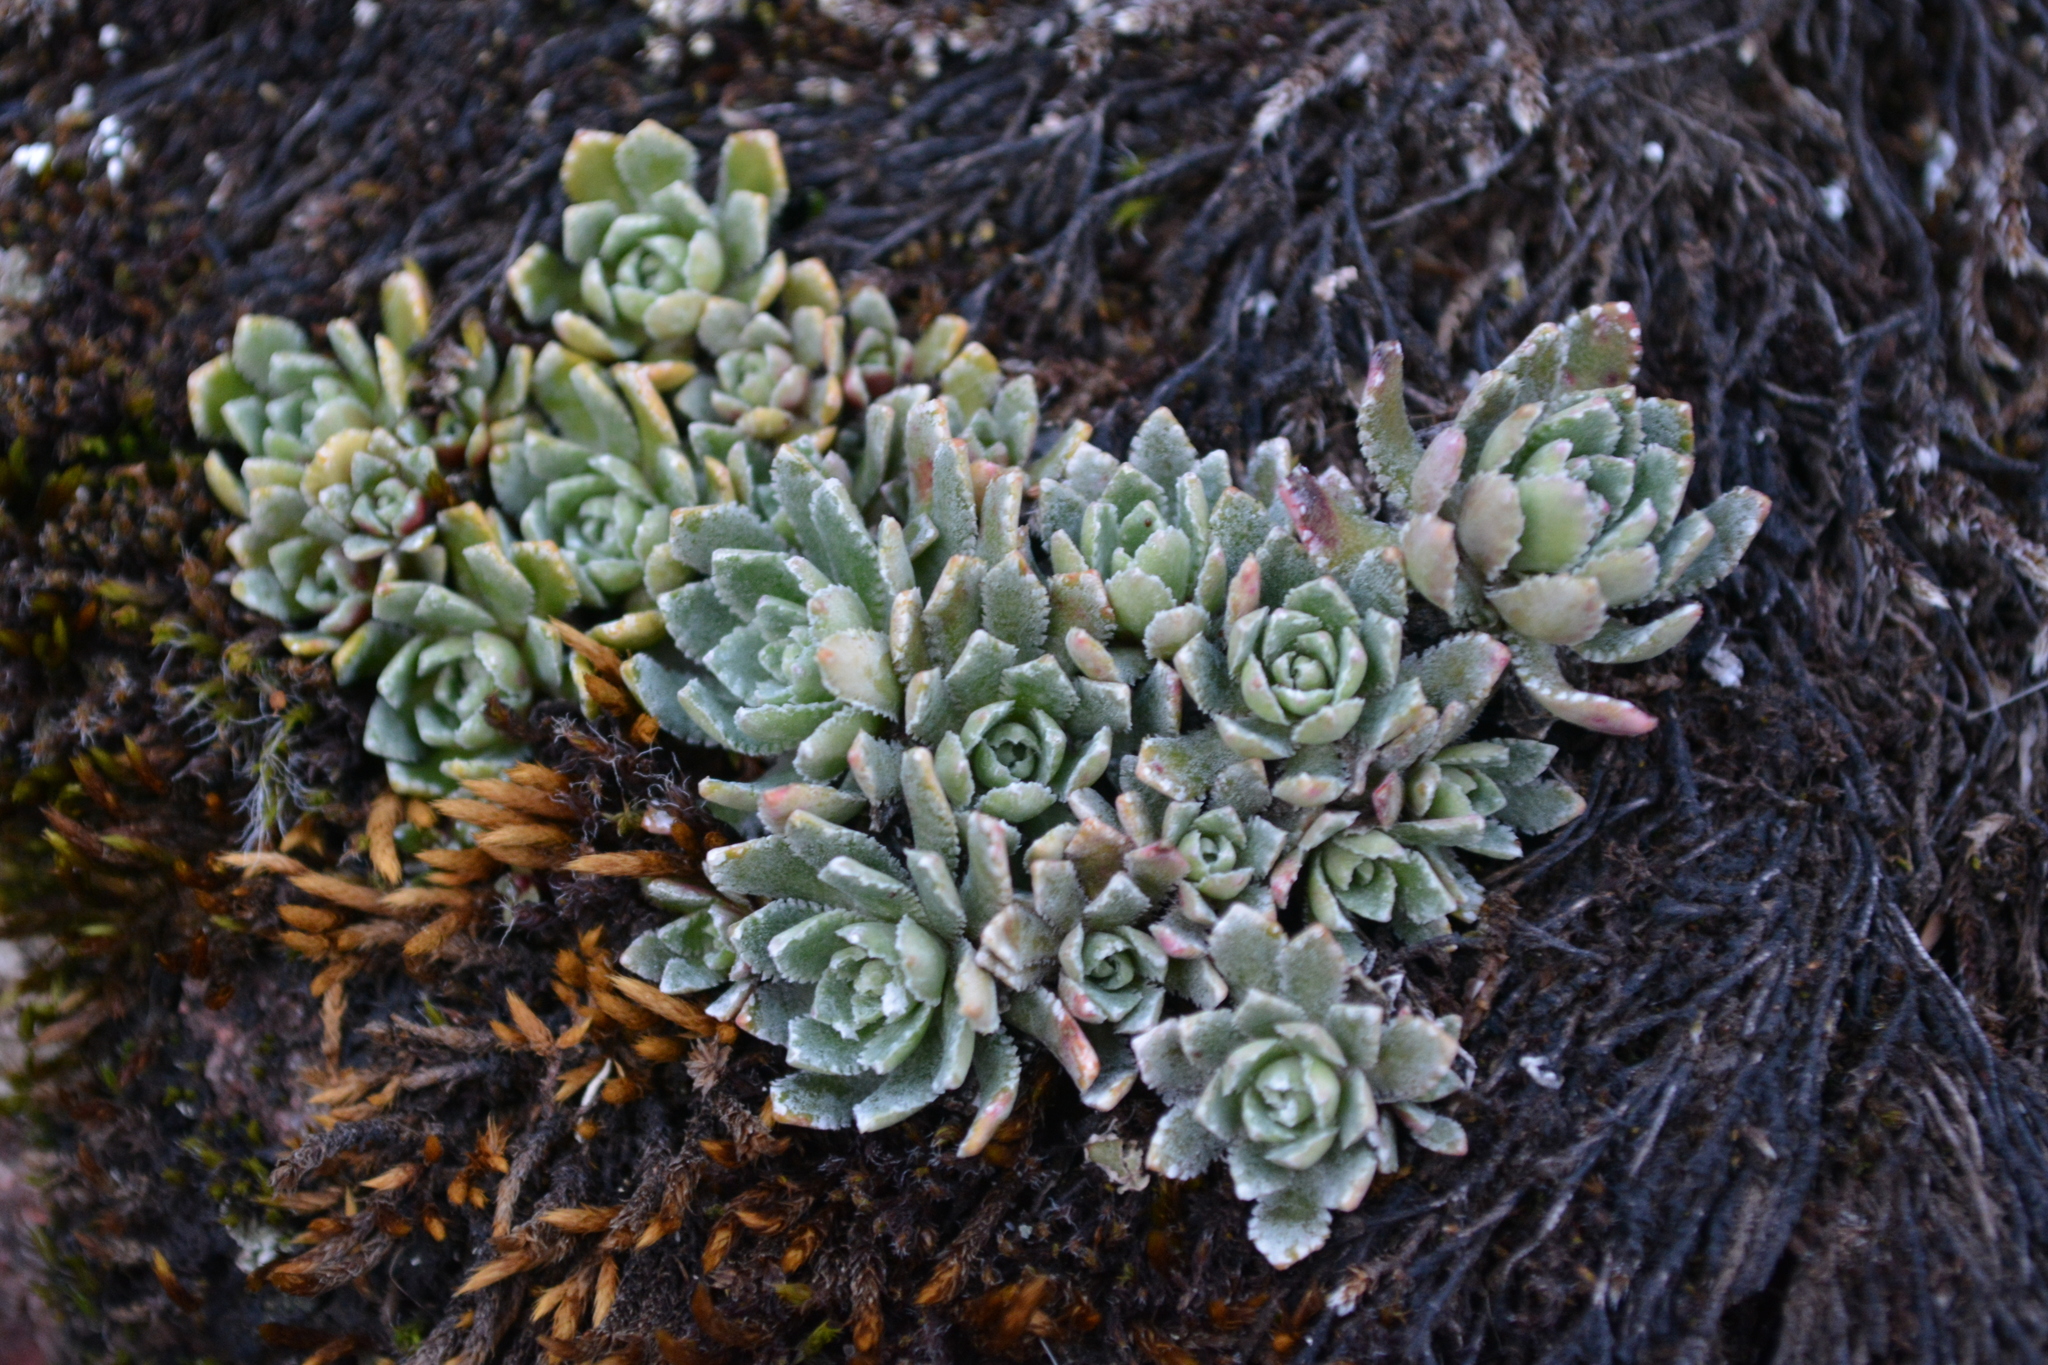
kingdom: Plantae
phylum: Tracheophyta
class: Magnoliopsida
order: Saxifragales
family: Saxifragaceae
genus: Saxifraga
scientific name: Saxifraga paniculata
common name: Livelong saxifrage
